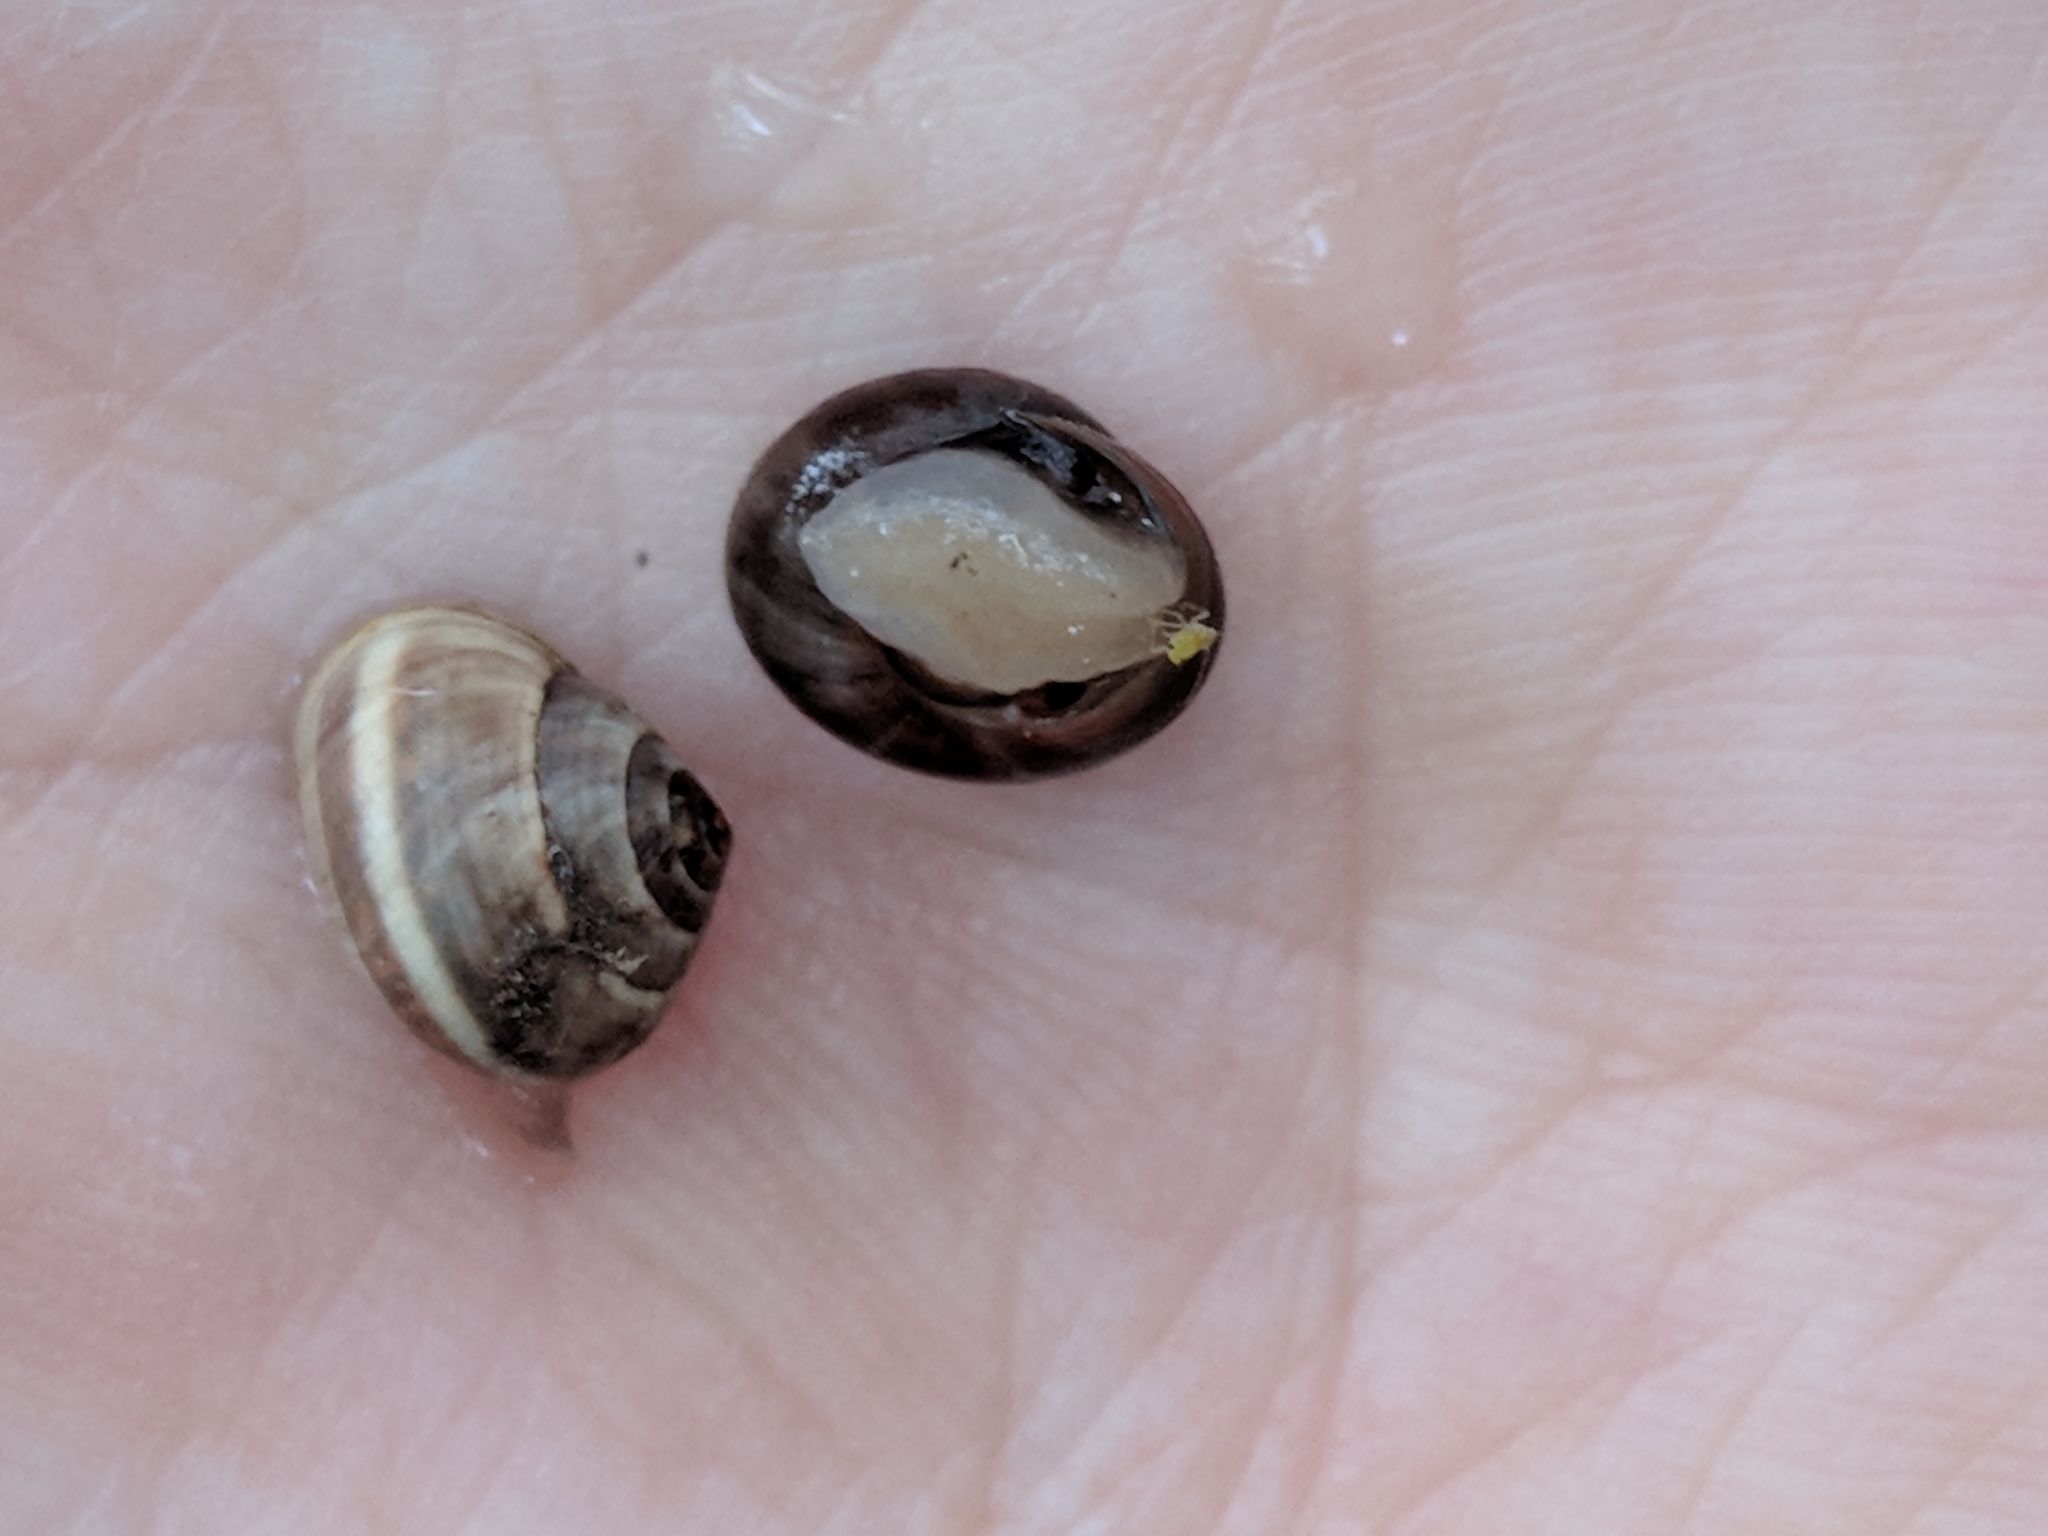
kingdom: Animalia
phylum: Mollusca
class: Gastropoda
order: Cycloneritida
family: Helicinidae
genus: Helicina
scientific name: Helicina orbiculata
